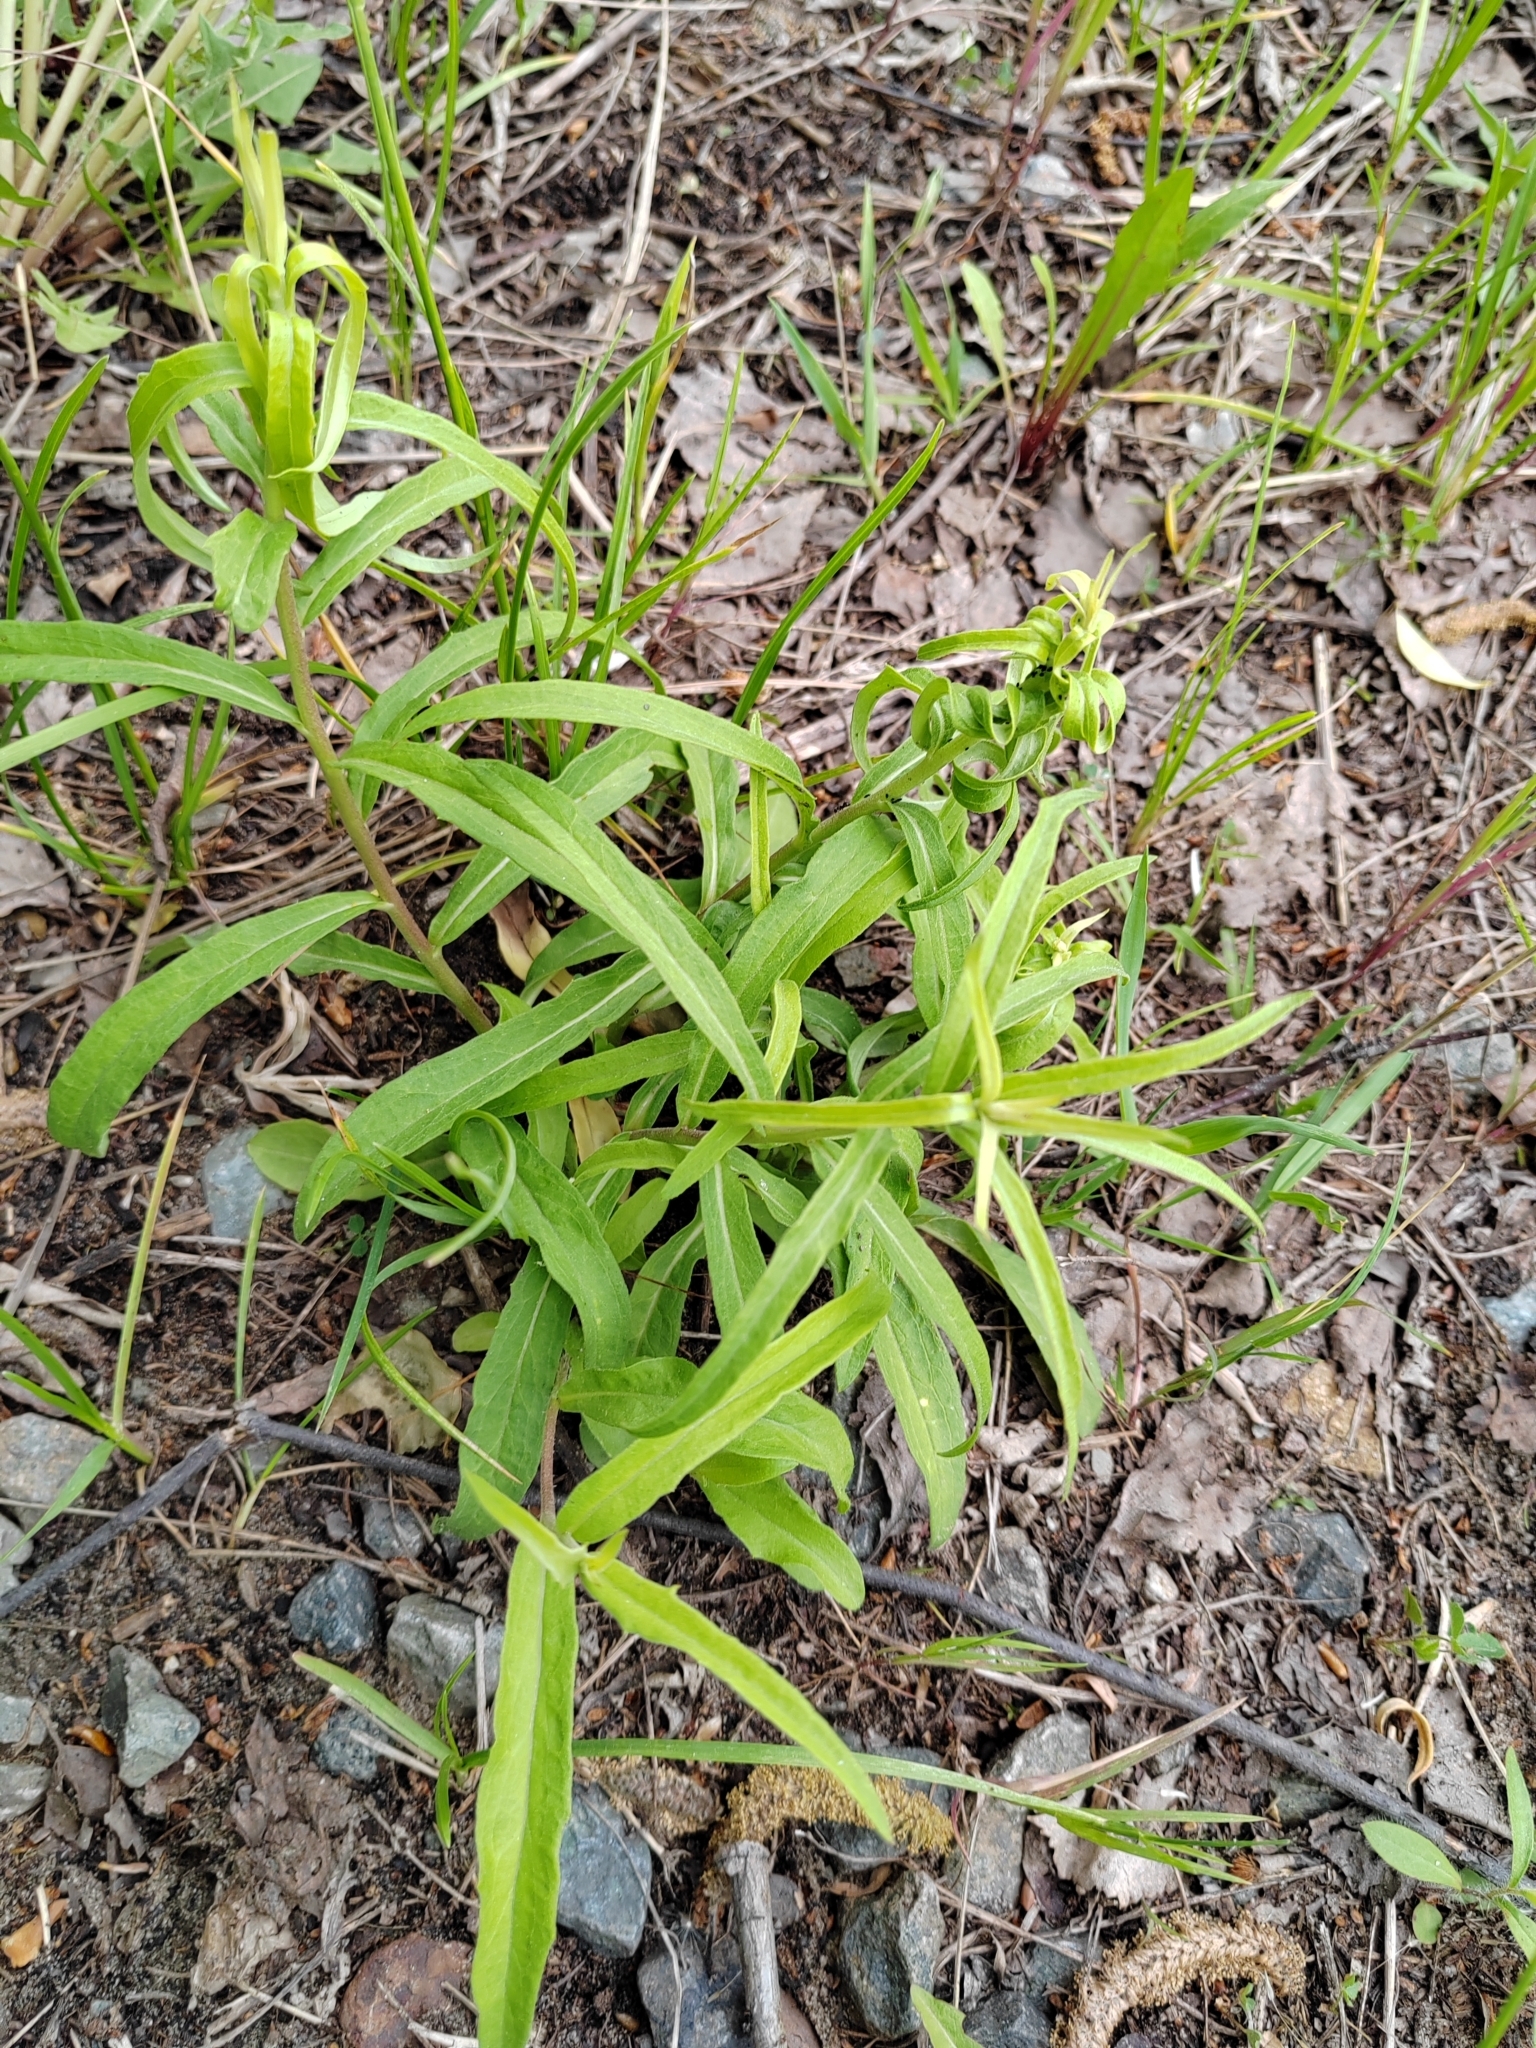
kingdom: Plantae
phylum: Tracheophyta
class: Magnoliopsida
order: Asterales
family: Asteraceae
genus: Hieracium
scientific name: Hieracium umbellatum
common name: Northern hawkweed
